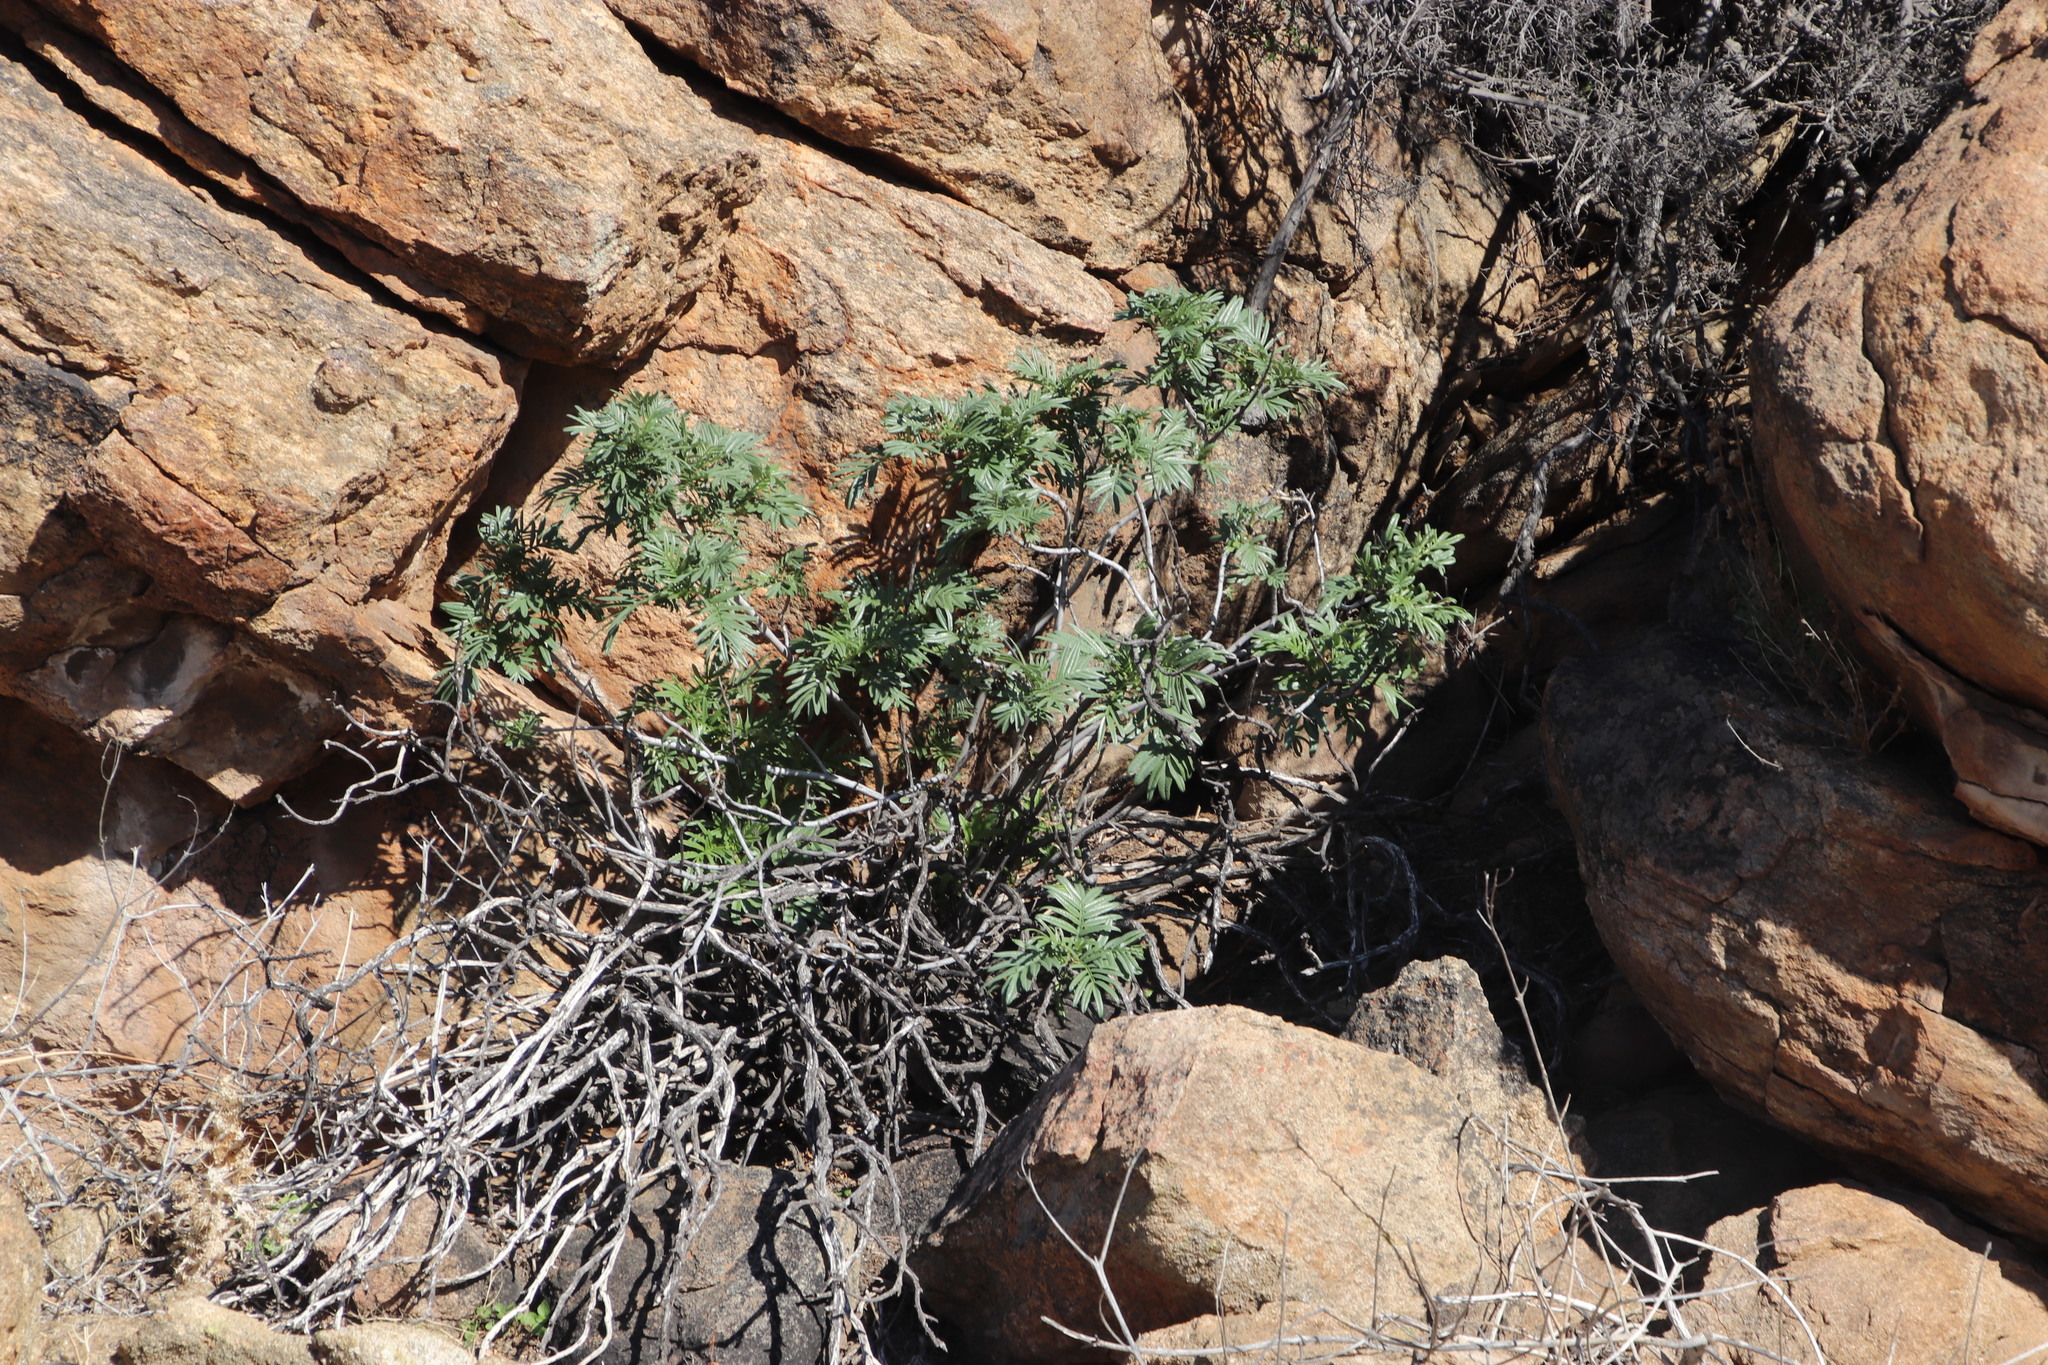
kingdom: Plantae
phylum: Tracheophyta
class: Magnoliopsida
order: Geraniales
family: Melianthaceae
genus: Melianthus
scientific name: Melianthus pectinatus
